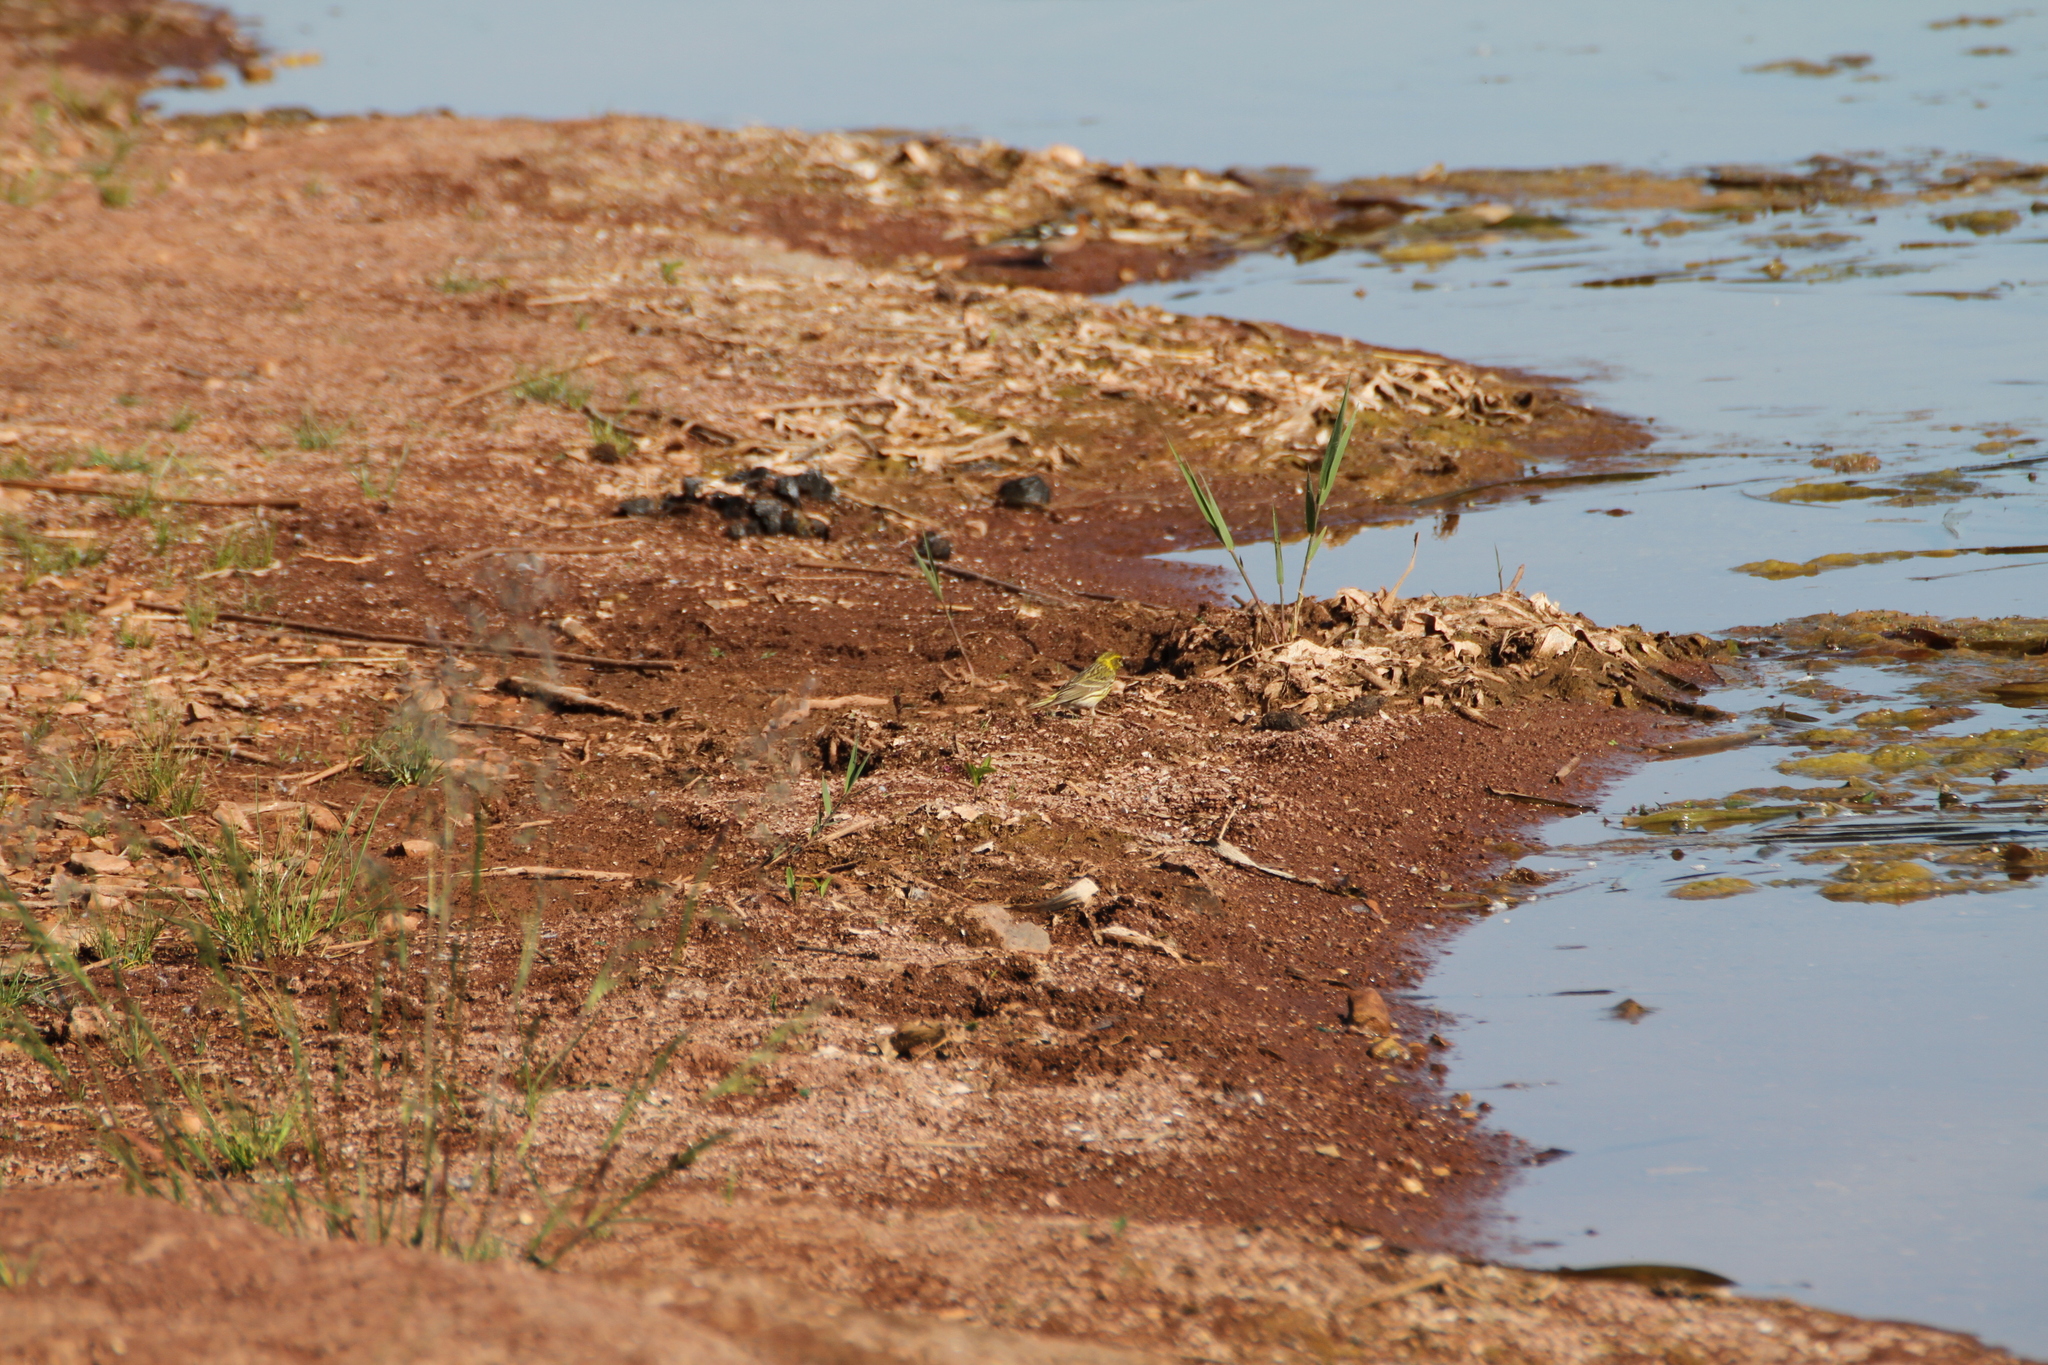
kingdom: Animalia
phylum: Chordata
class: Aves
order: Passeriformes
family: Fringillidae
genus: Serinus
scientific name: Serinus serinus
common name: European serin
